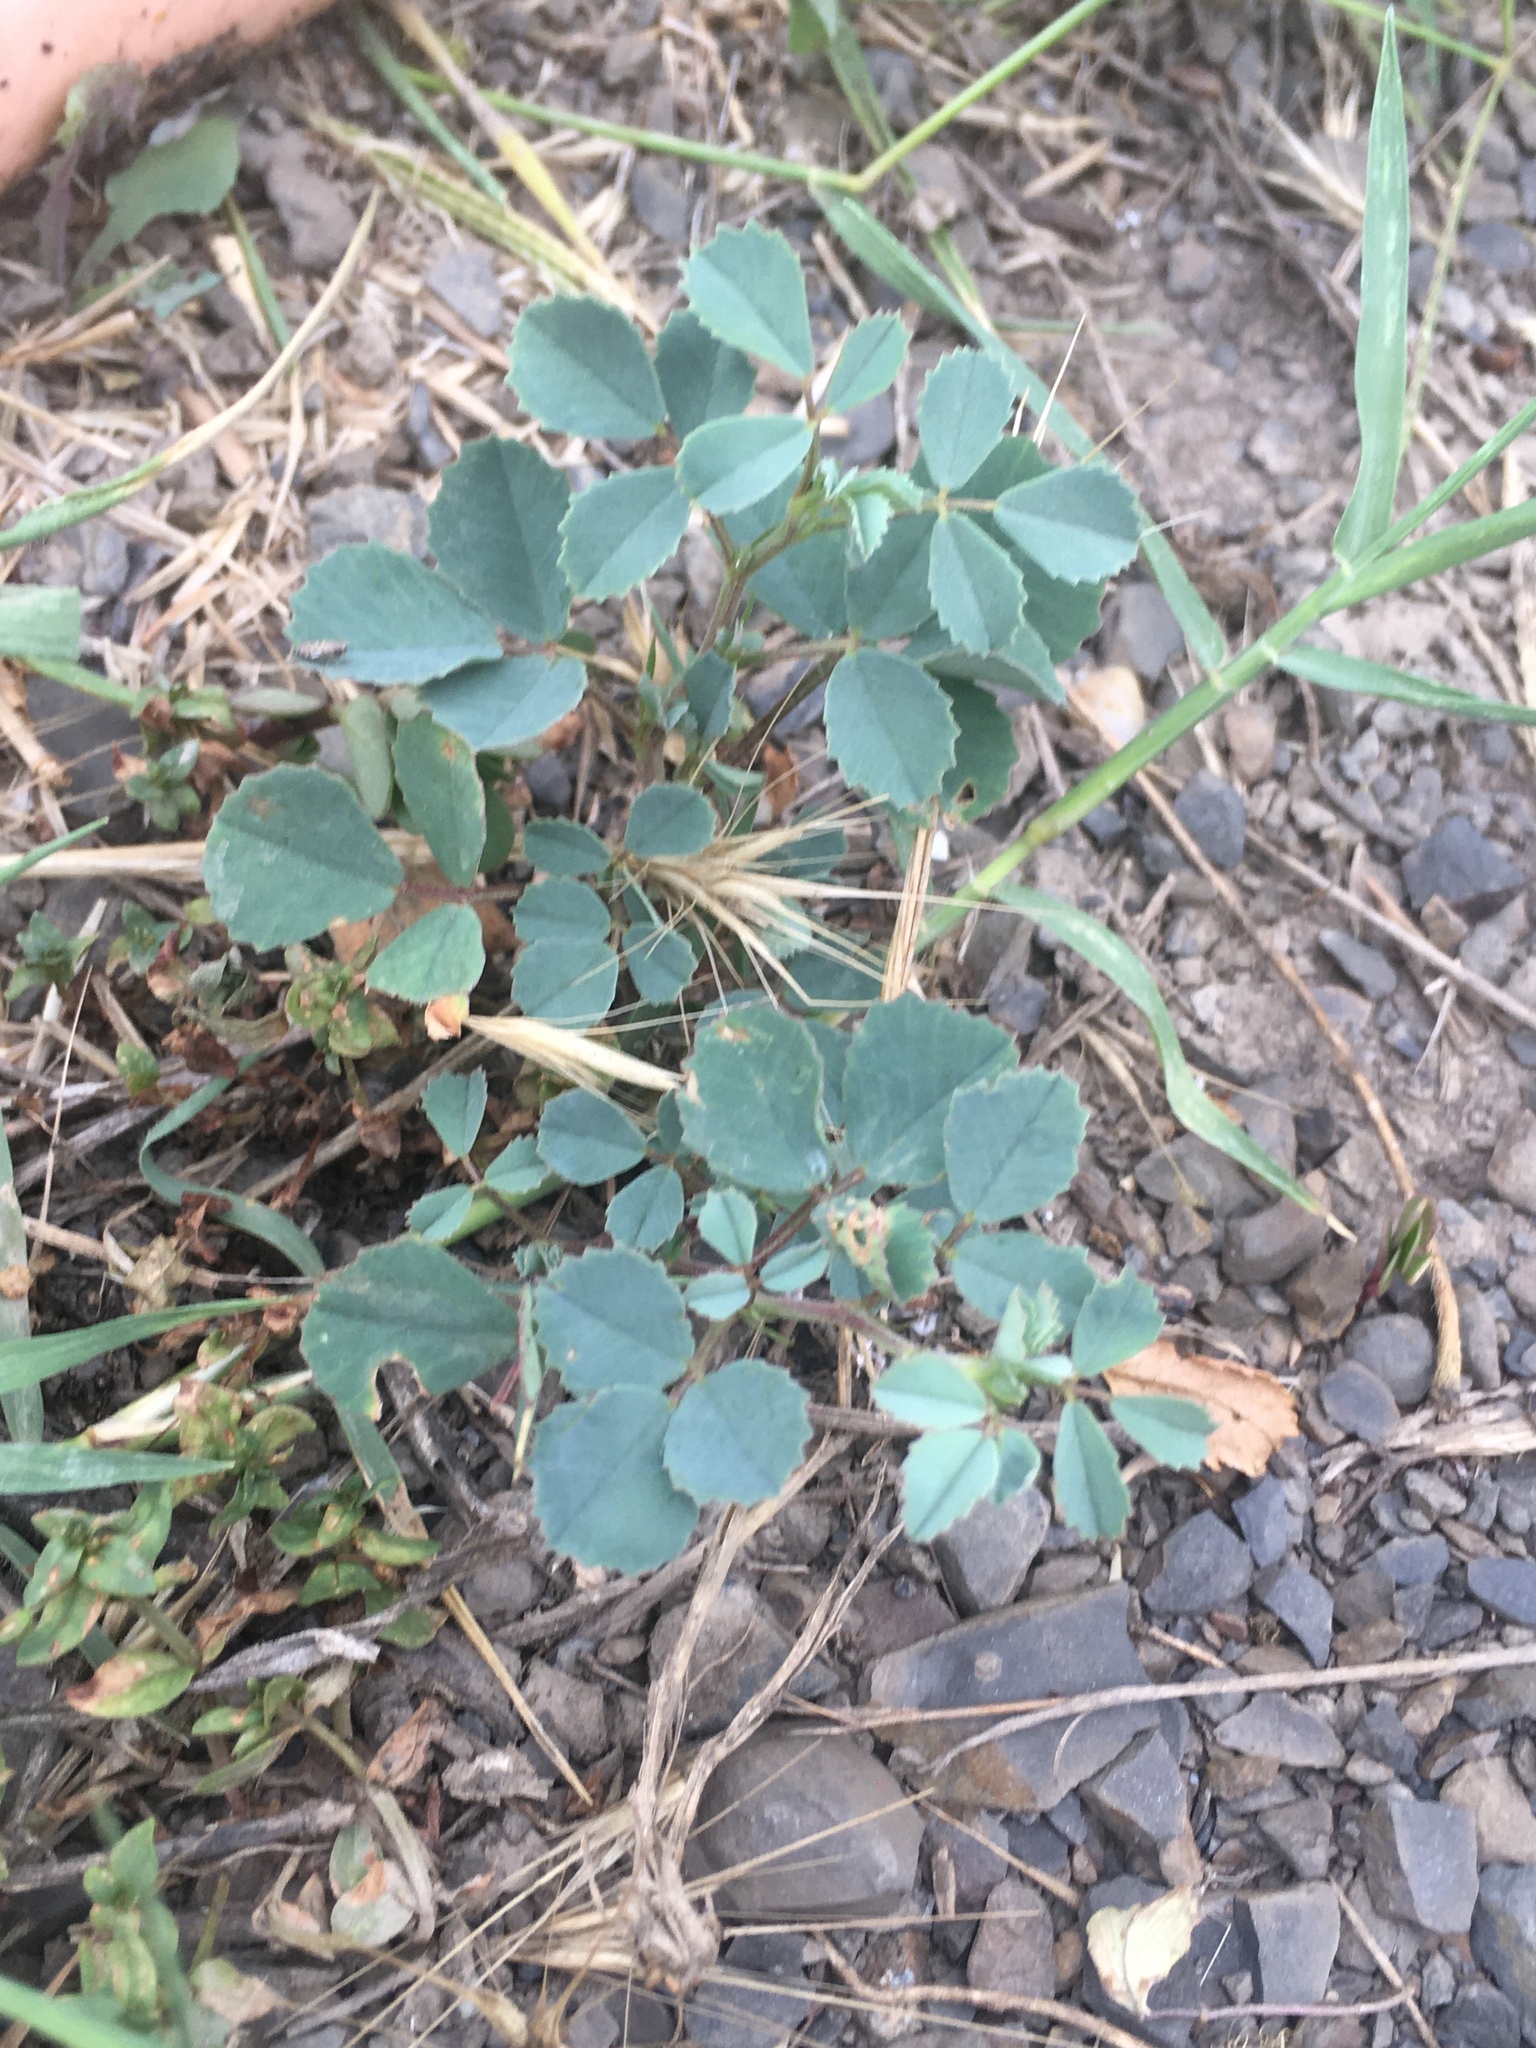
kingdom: Plantae
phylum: Tracheophyta
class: Magnoliopsida
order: Fabales
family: Fabaceae
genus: Trigonella
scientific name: Trigonella gladiata
